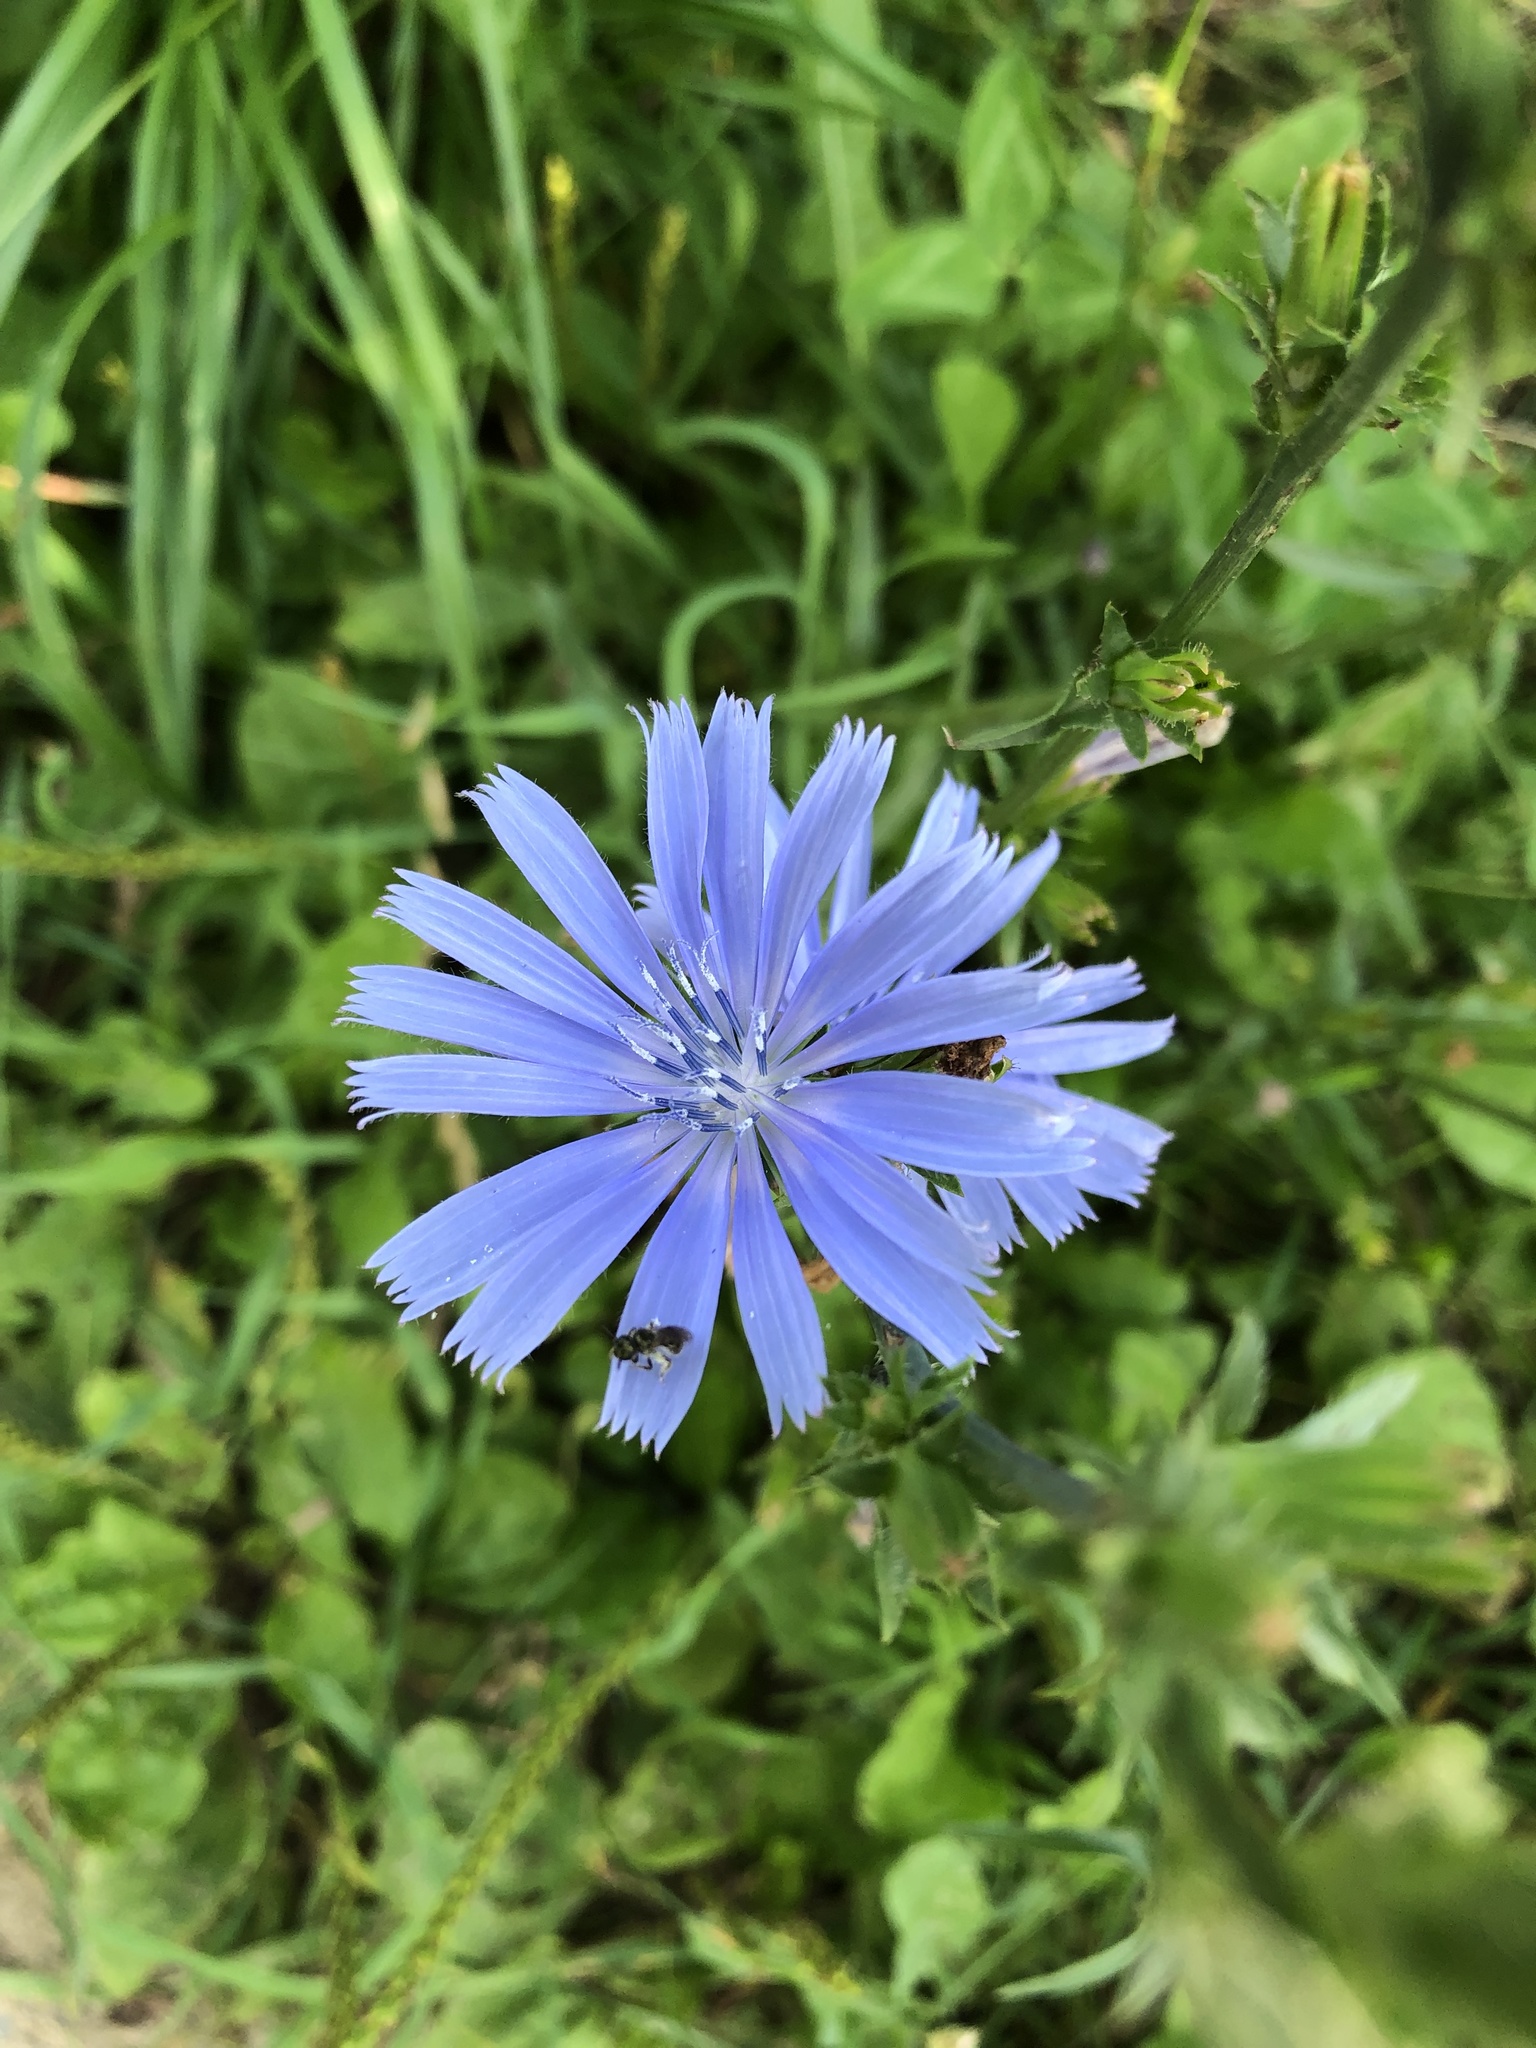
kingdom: Plantae
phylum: Tracheophyta
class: Magnoliopsida
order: Asterales
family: Asteraceae
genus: Cichorium
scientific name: Cichorium intybus
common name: Chicory
